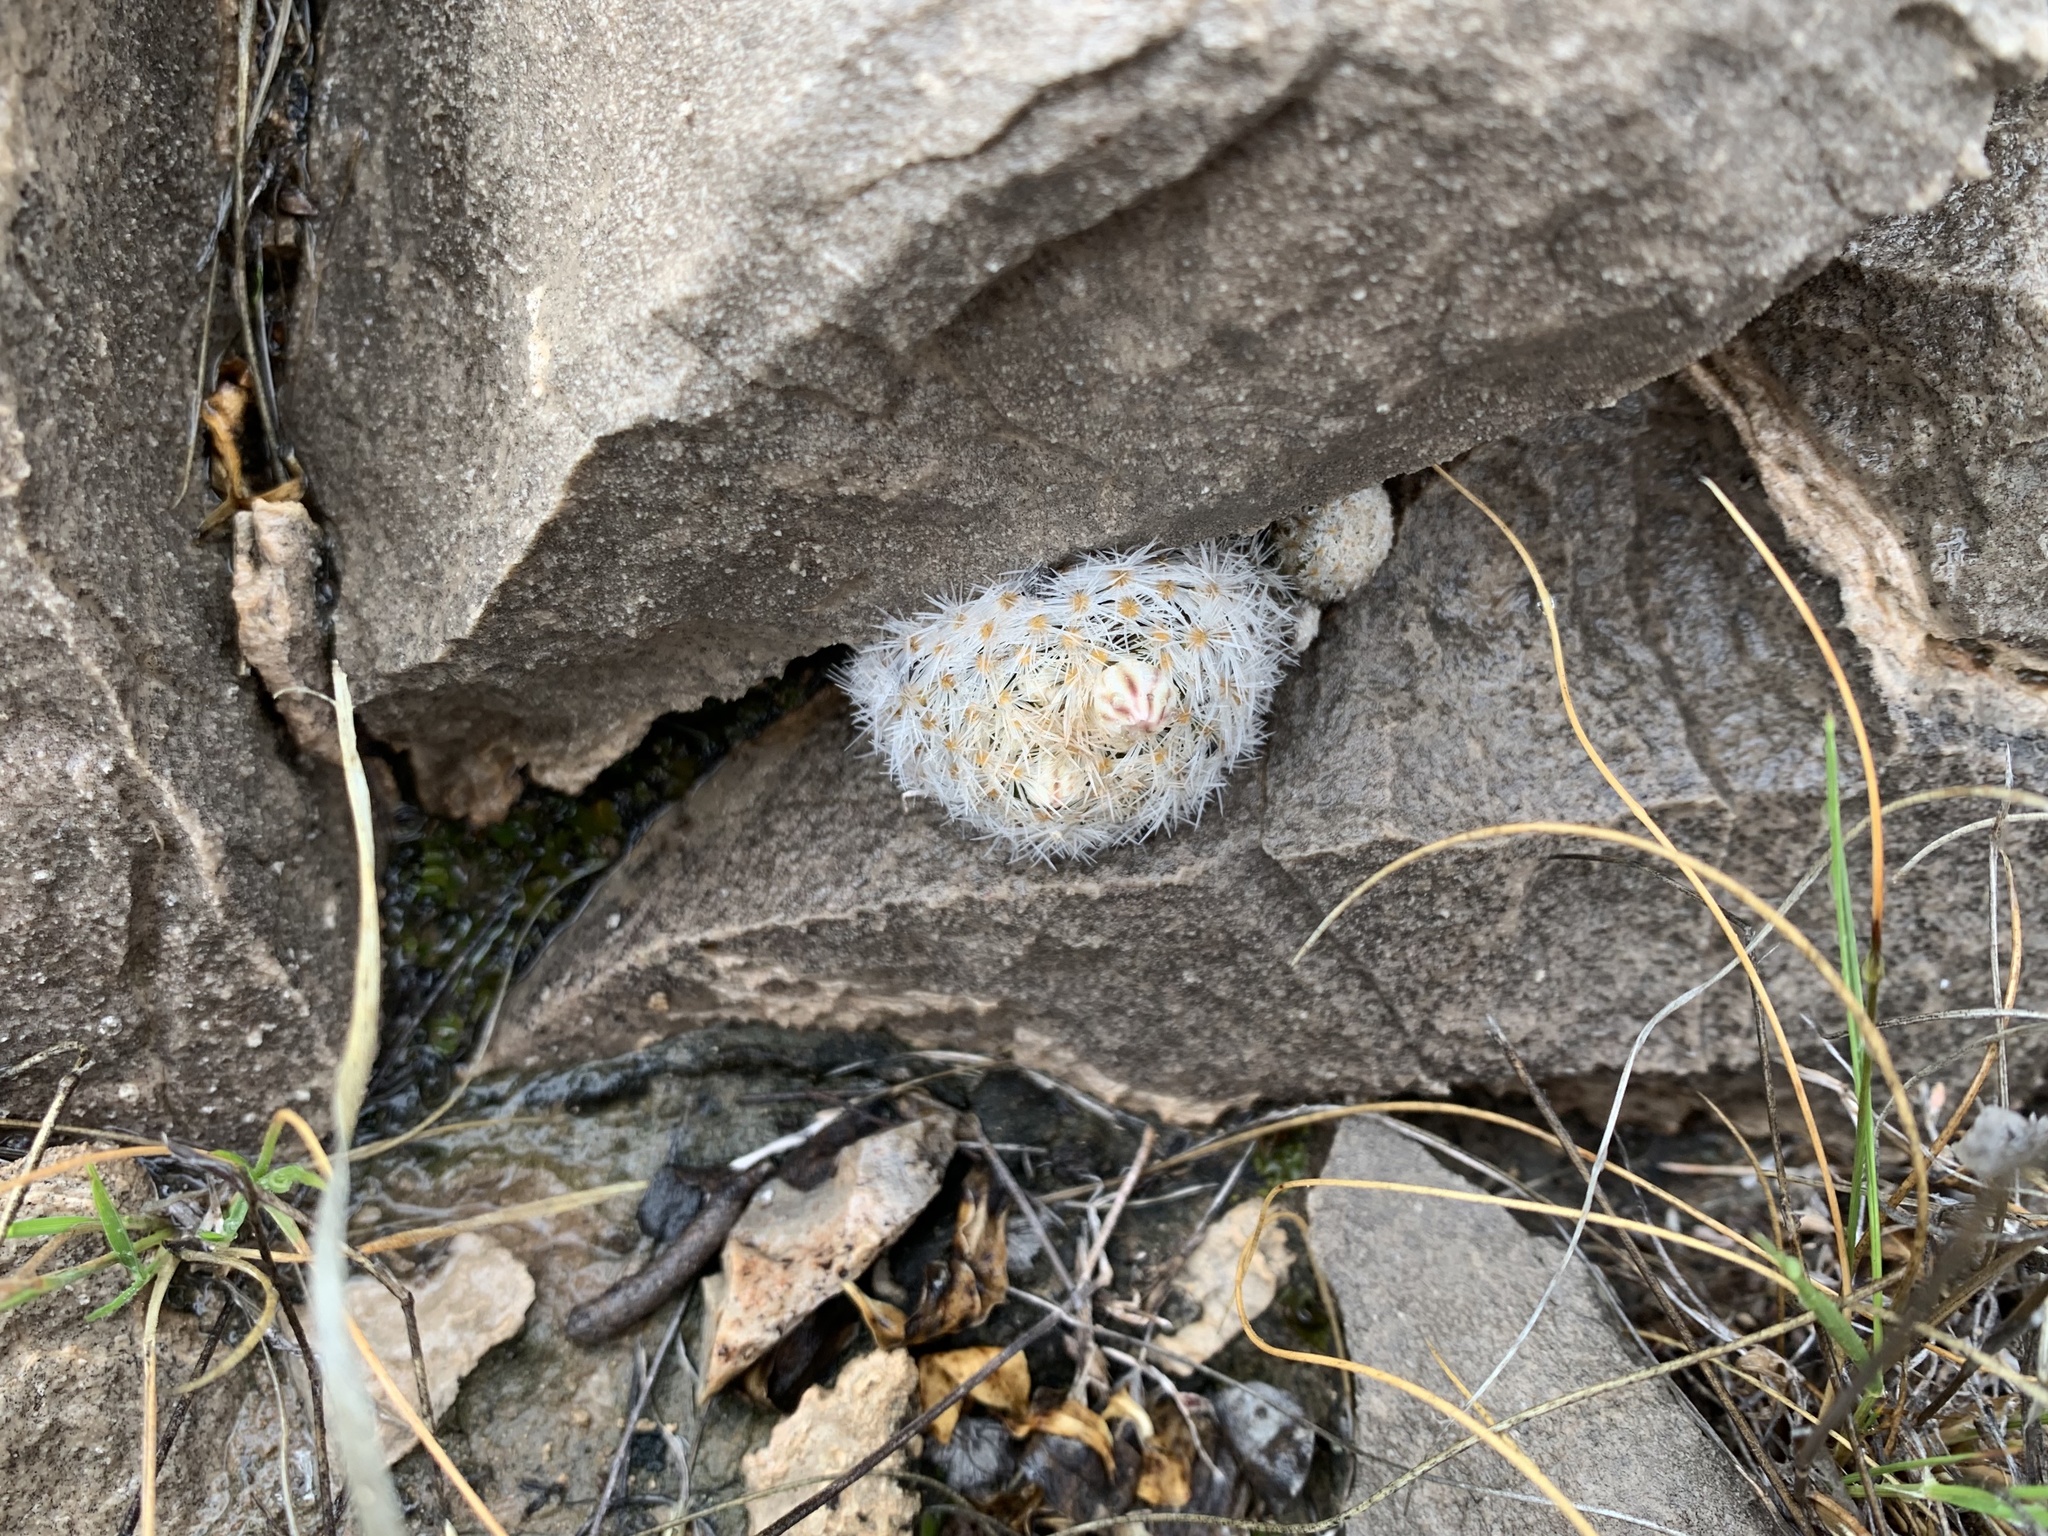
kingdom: Plantae
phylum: Tracheophyta
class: Magnoliopsida
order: Caryophyllales
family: Cactaceae
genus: Mammillaria
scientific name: Mammillaria lasiacantha
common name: Lace-spine nipple cactus
